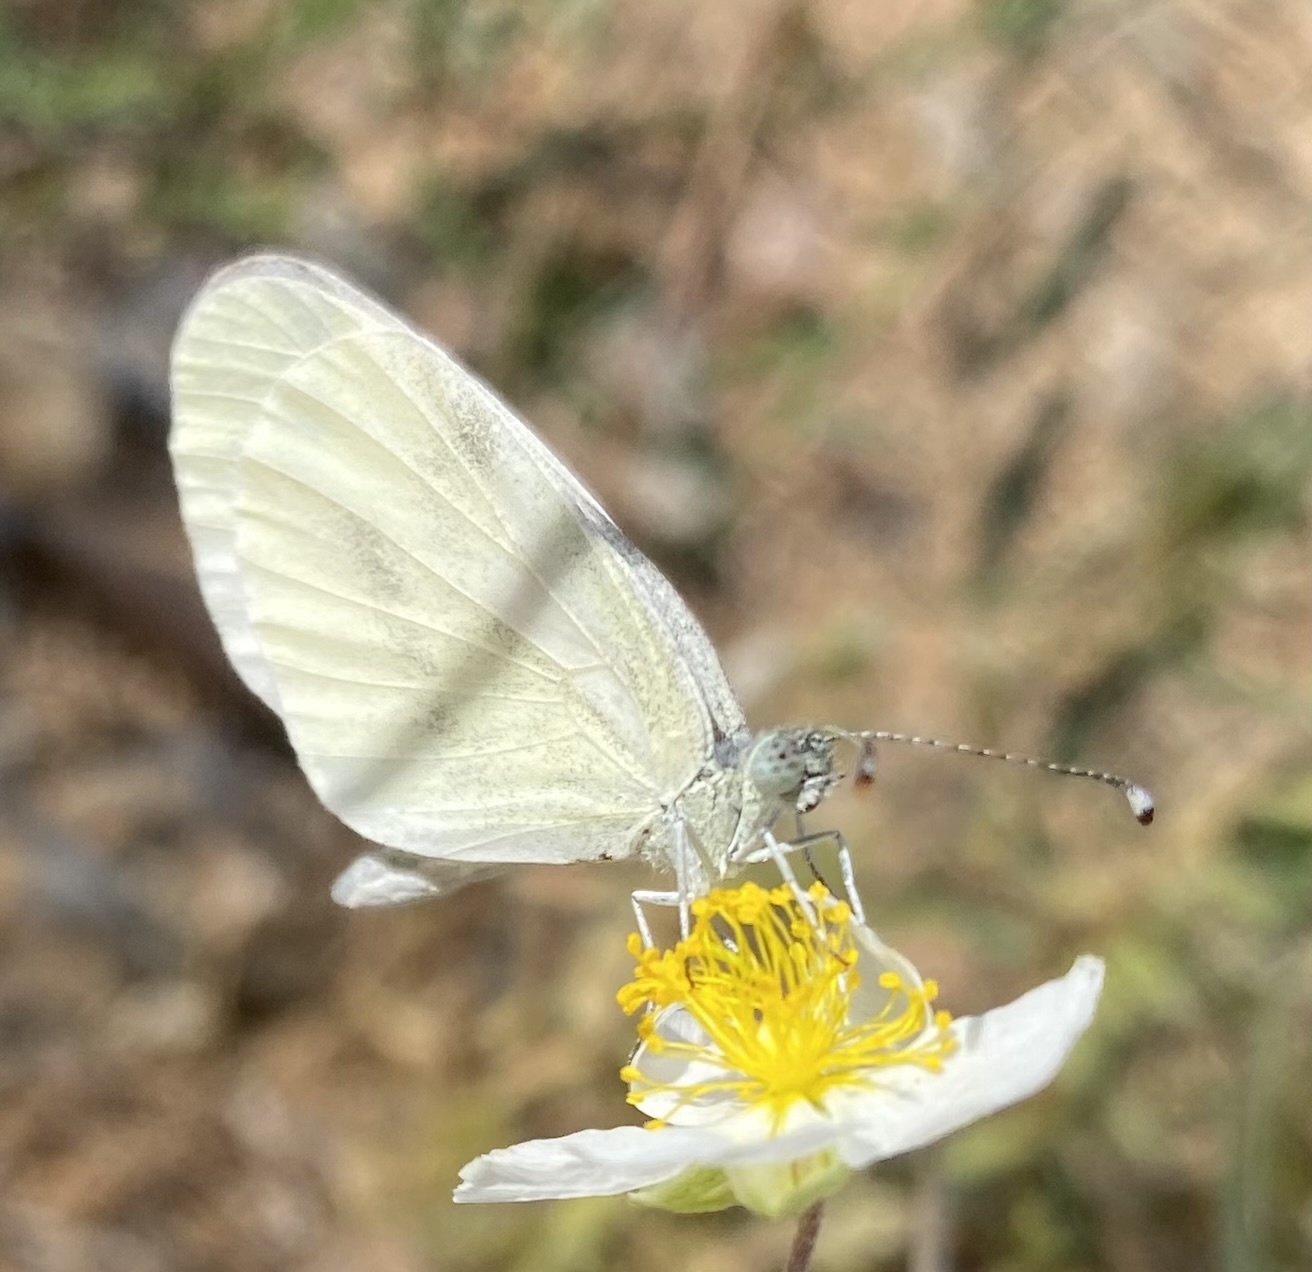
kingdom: Animalia
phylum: Arthropoda
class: Insecta
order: Lepidoptera
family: Pieridae
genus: Leptidea
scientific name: Leptidea sinapis
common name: Wood white
